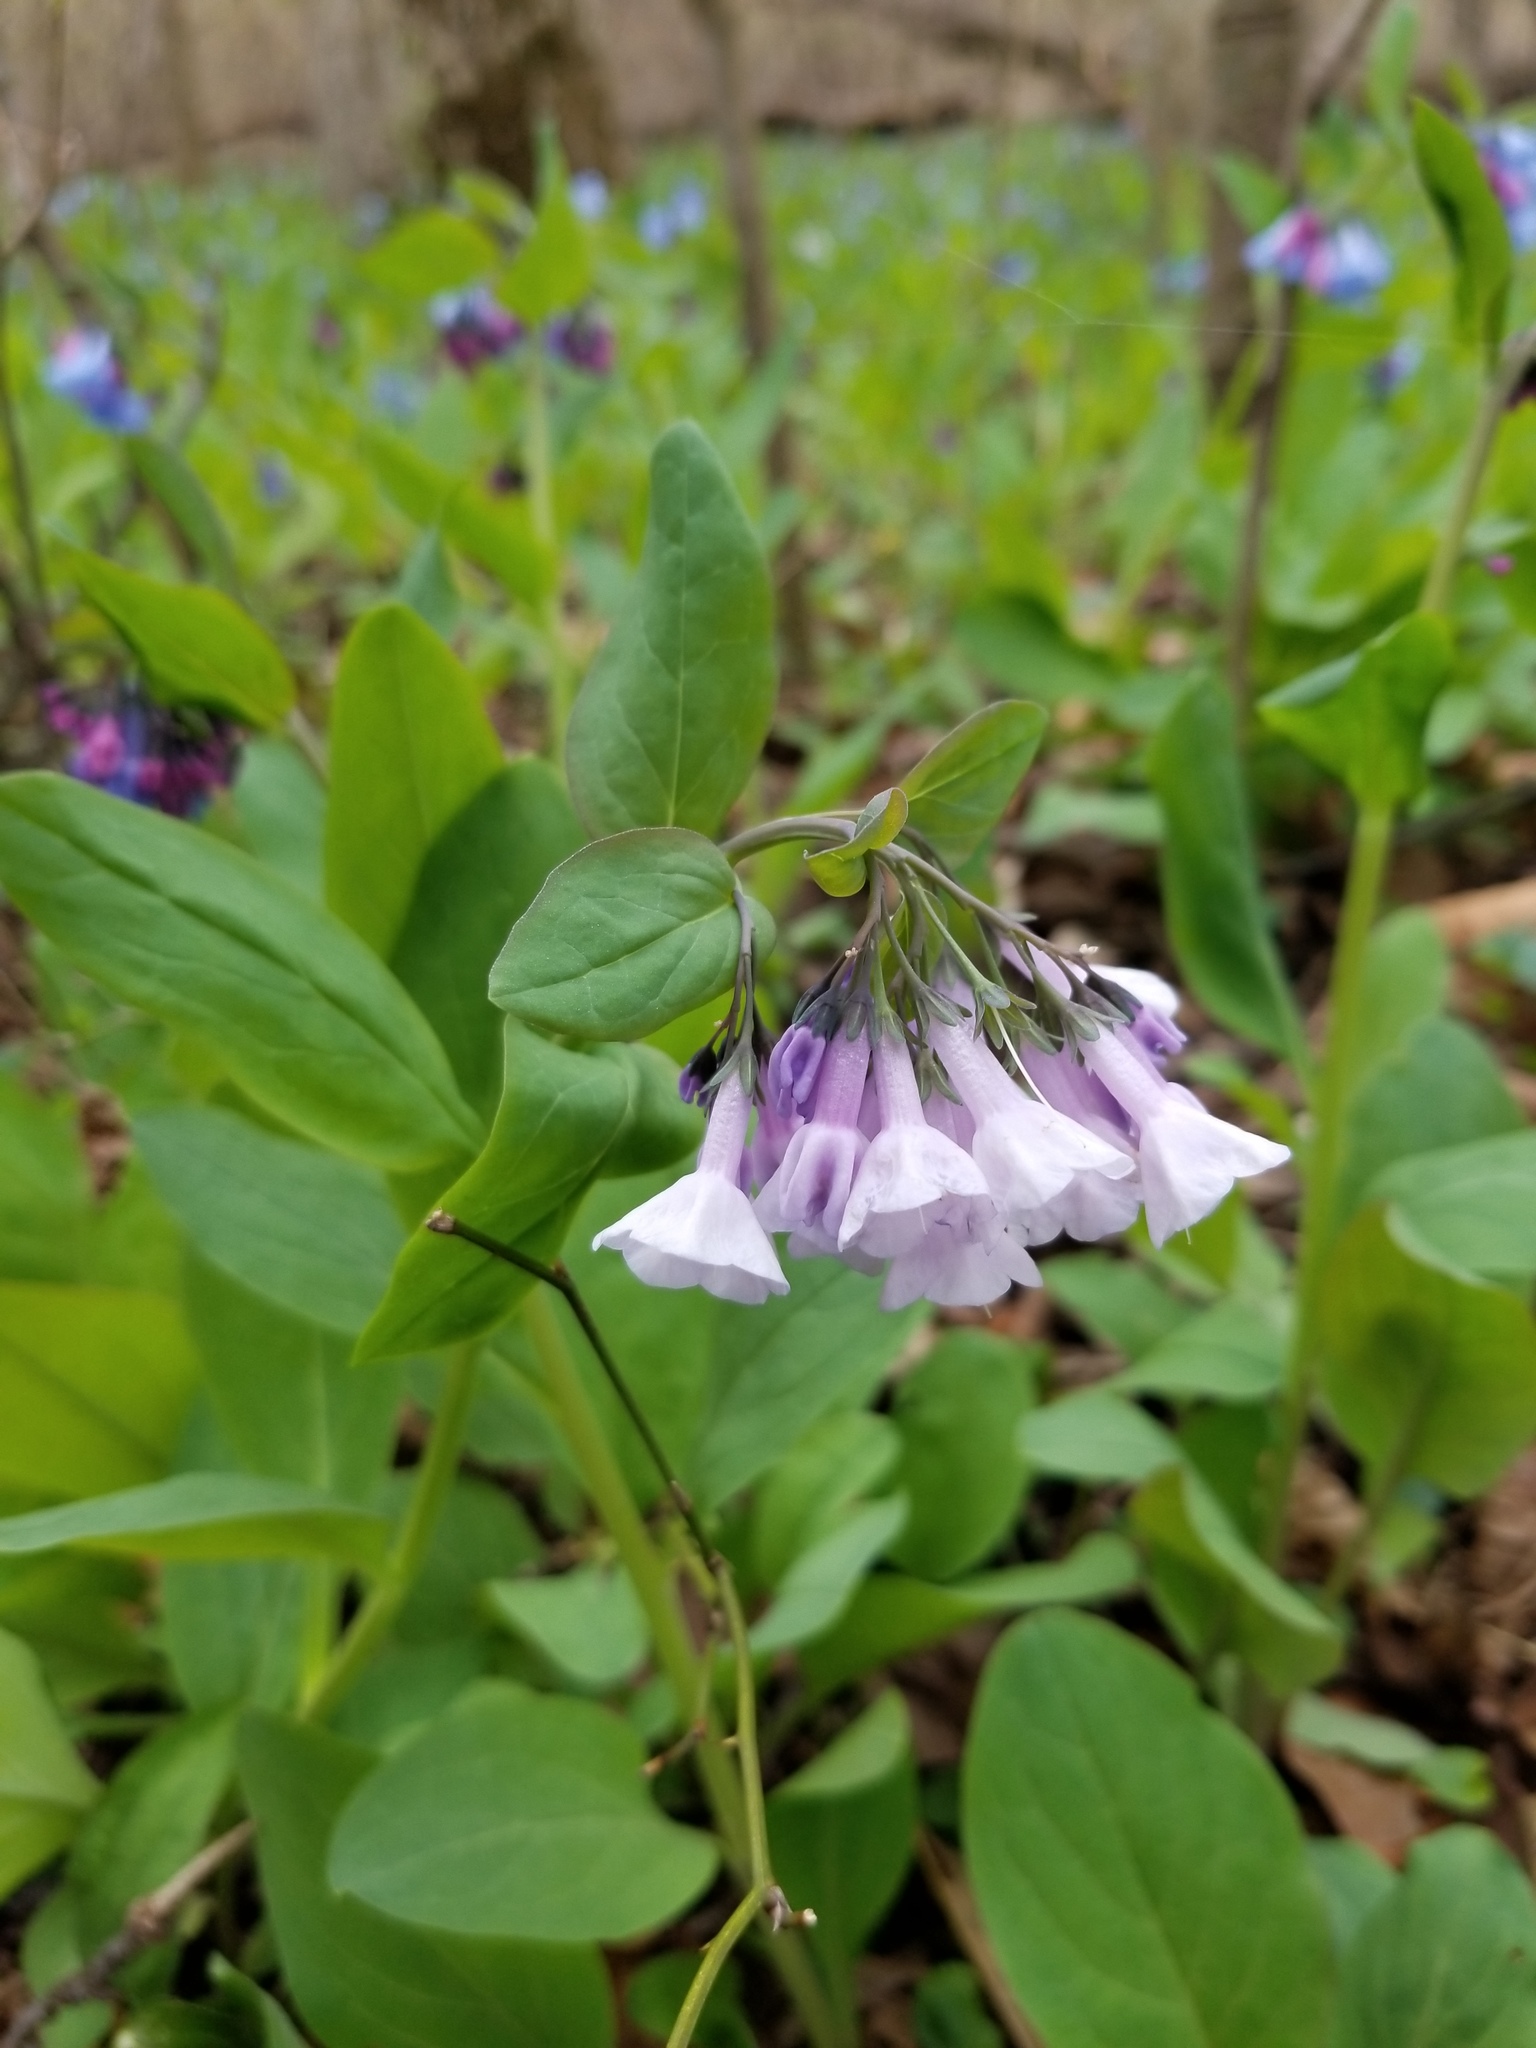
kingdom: Plantae
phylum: Tracheophyta
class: Magnoliopsida
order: Boraginales
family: Boraginaceae
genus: Mertensia
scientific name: Mertensia virginica
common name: Virginia bluebells
